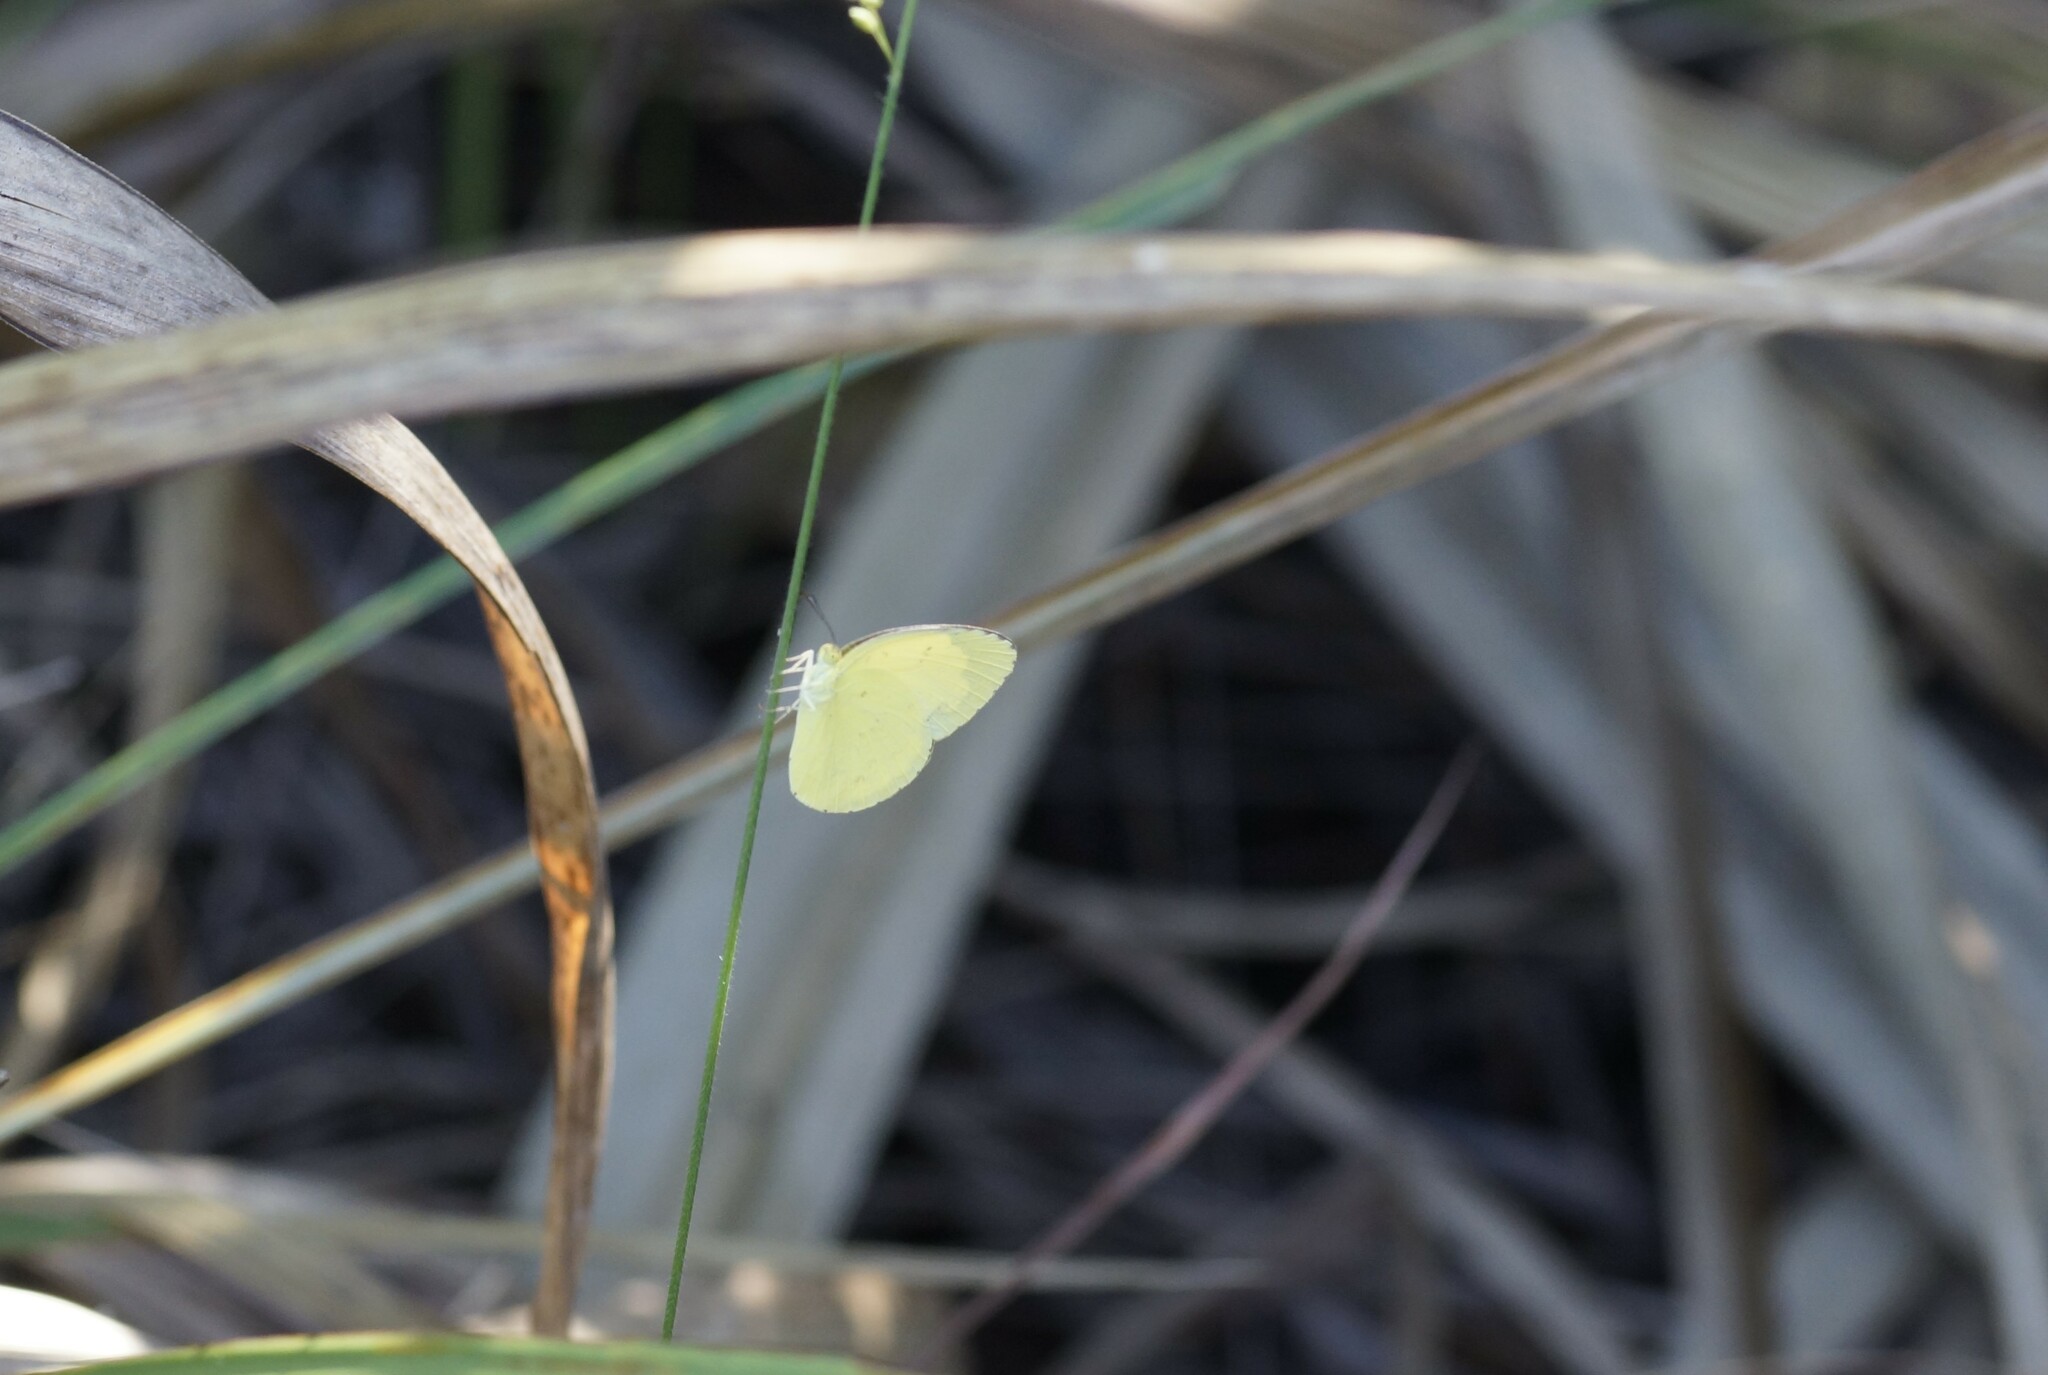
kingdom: Animalia
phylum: Arthropoda
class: Insecta
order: Lepidoptera
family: Pieridae
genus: Eurema
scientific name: Eurema hecabe
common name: Pale grass yellow
